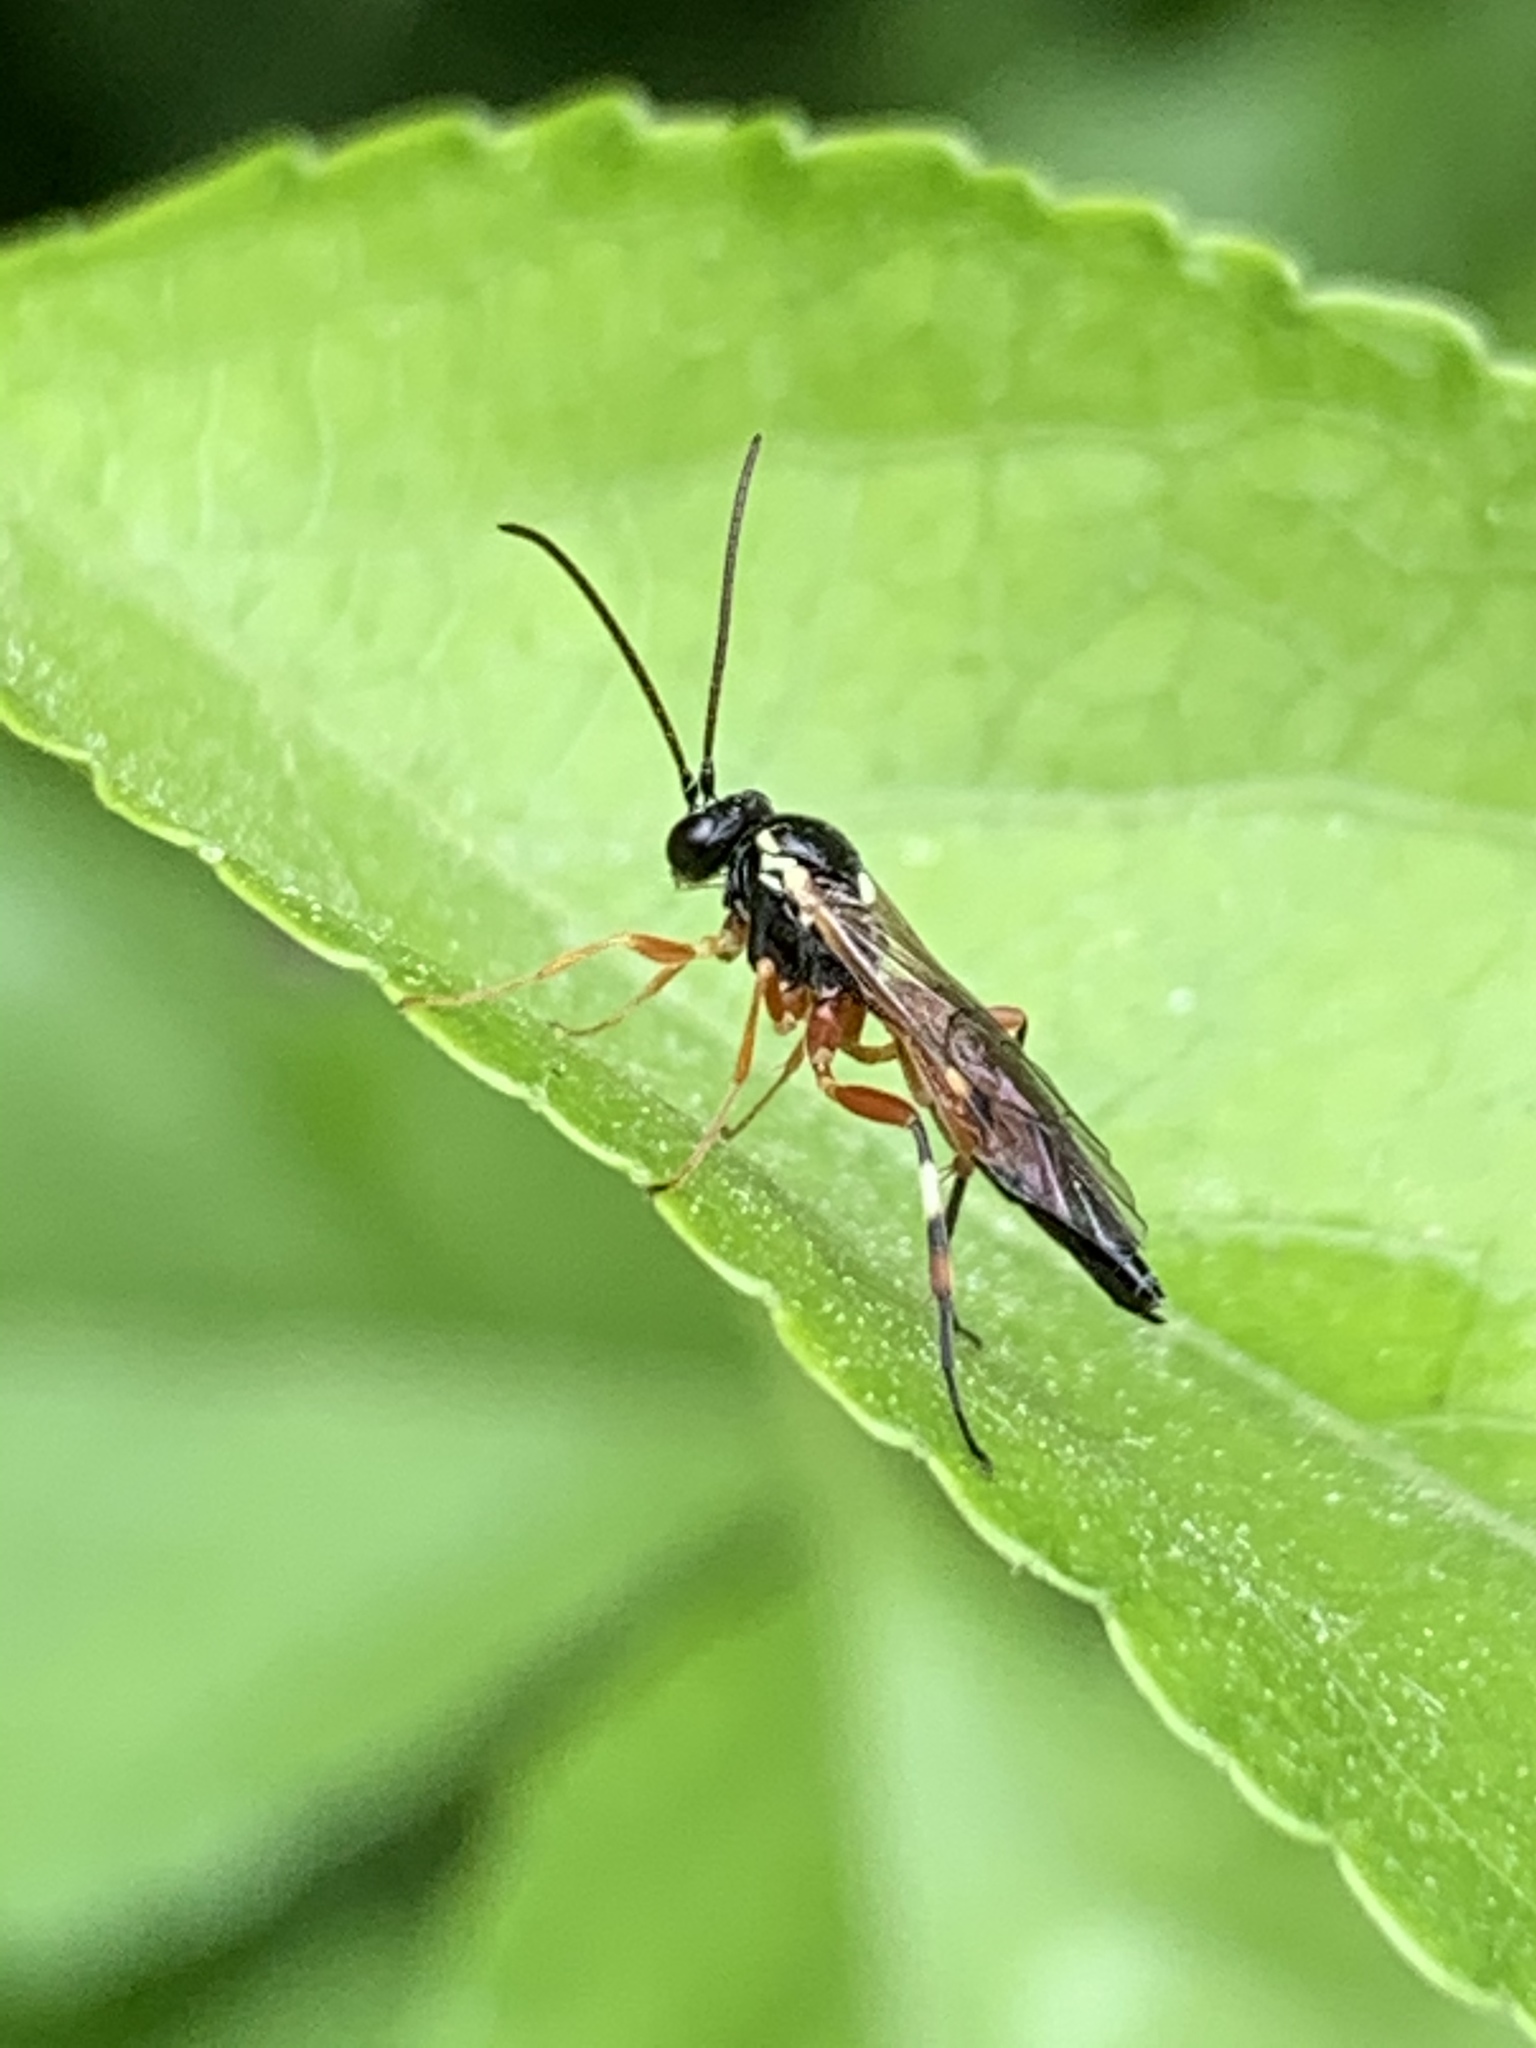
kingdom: Animalia
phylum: Arthropoda
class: Insecta
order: Hymenoptera
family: Ichneumonidae
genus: Diplazon
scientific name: Diplazon laetatorius
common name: Parasitoid wasp
